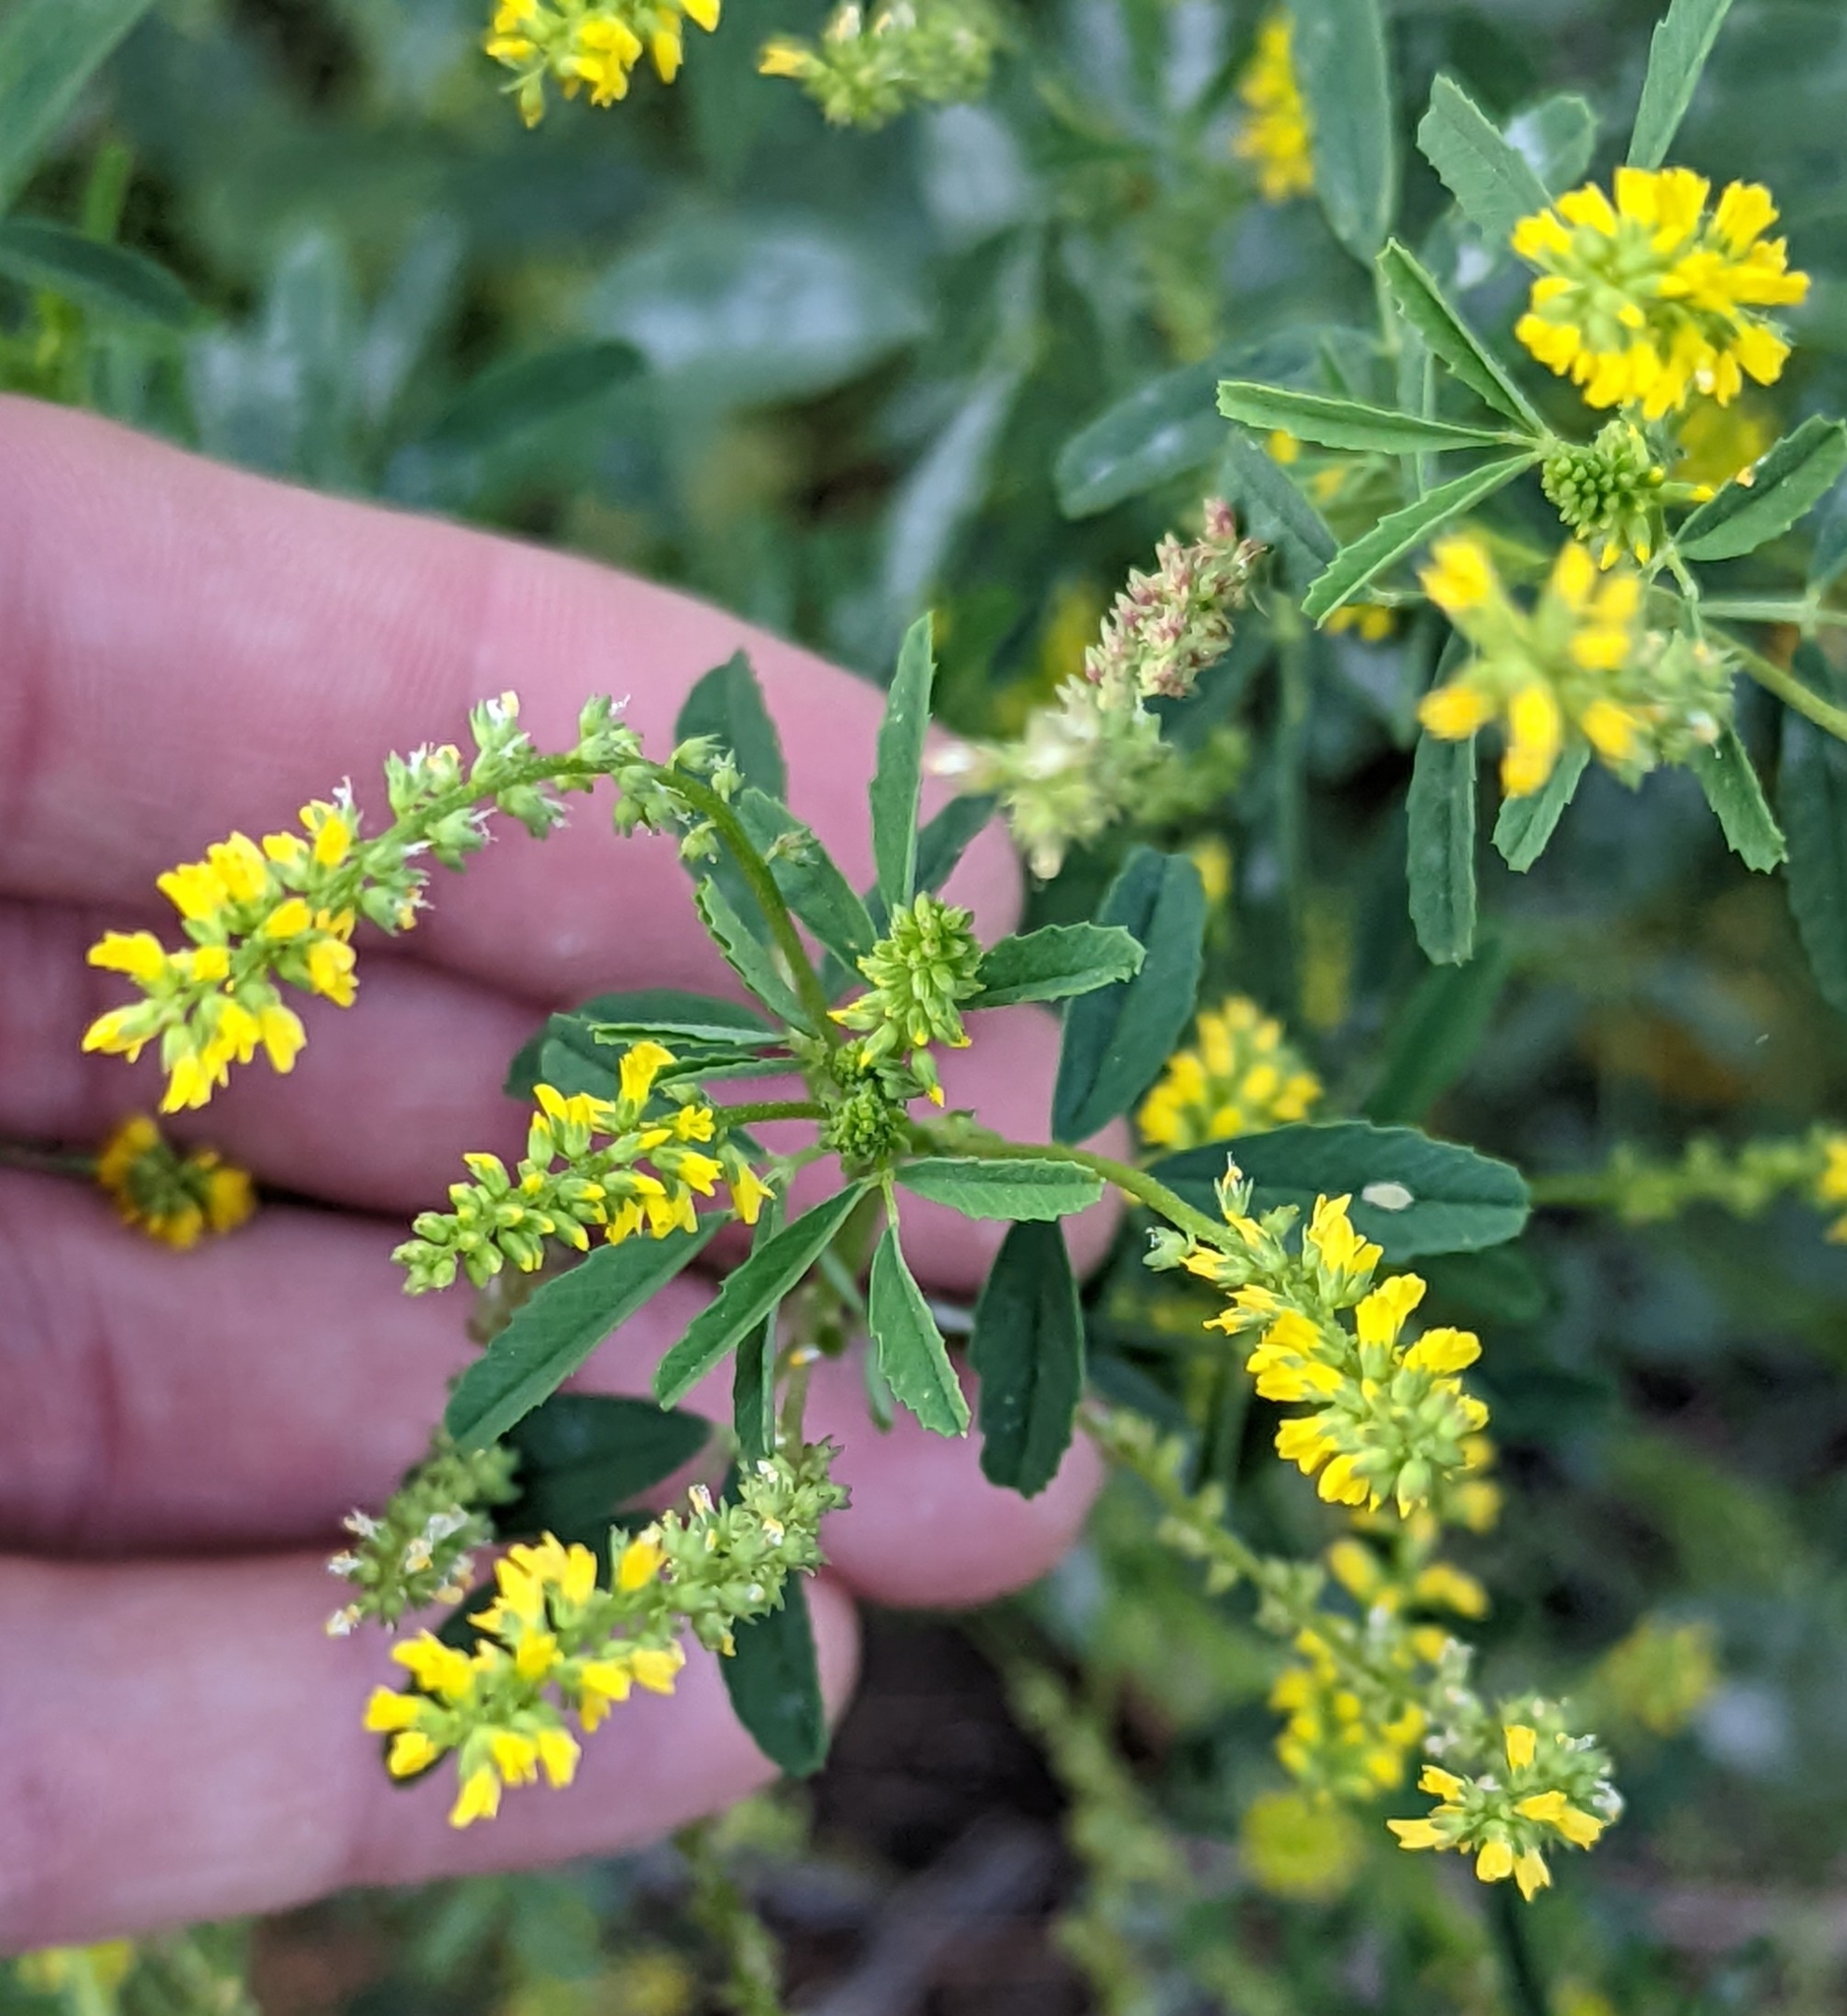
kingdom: Plantae
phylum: Tracheophyta
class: Magnoliopsida
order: Fabales
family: Fabaceae
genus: Melilotus
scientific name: Melilotus indicus
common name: Small melilot
